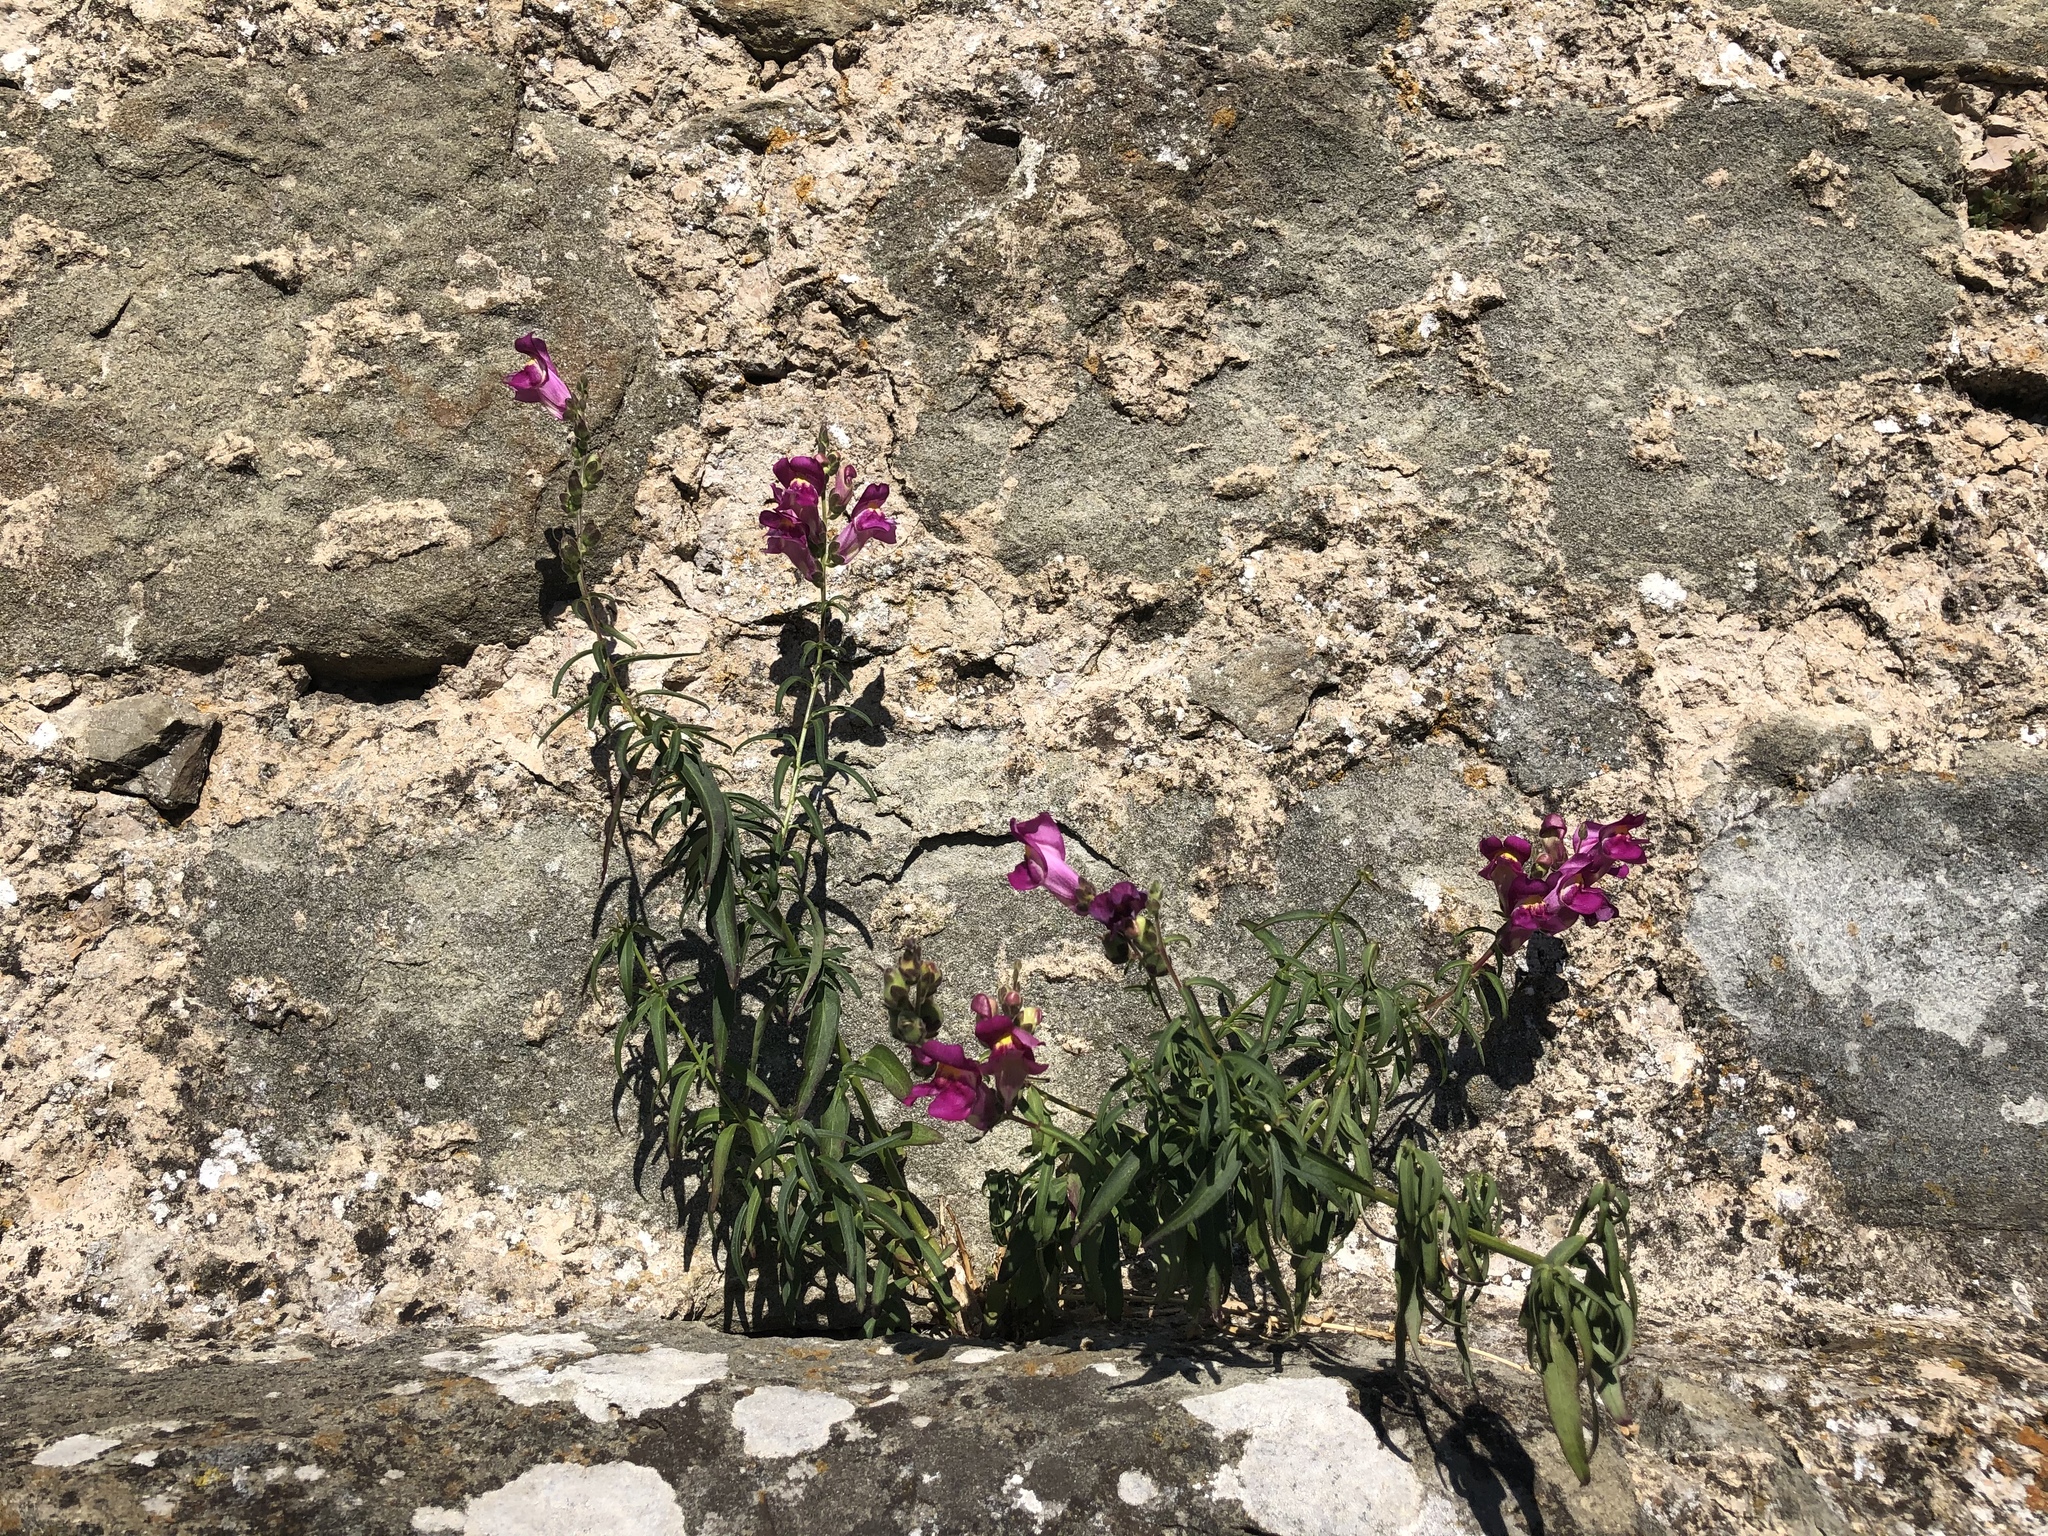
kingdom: Plantae
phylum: Tracheophyta
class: Magnoliopsida
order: Lamiales
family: Plantaginaceae
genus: Antirrhinum
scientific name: Antirrhinum majus
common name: Snapdragon
